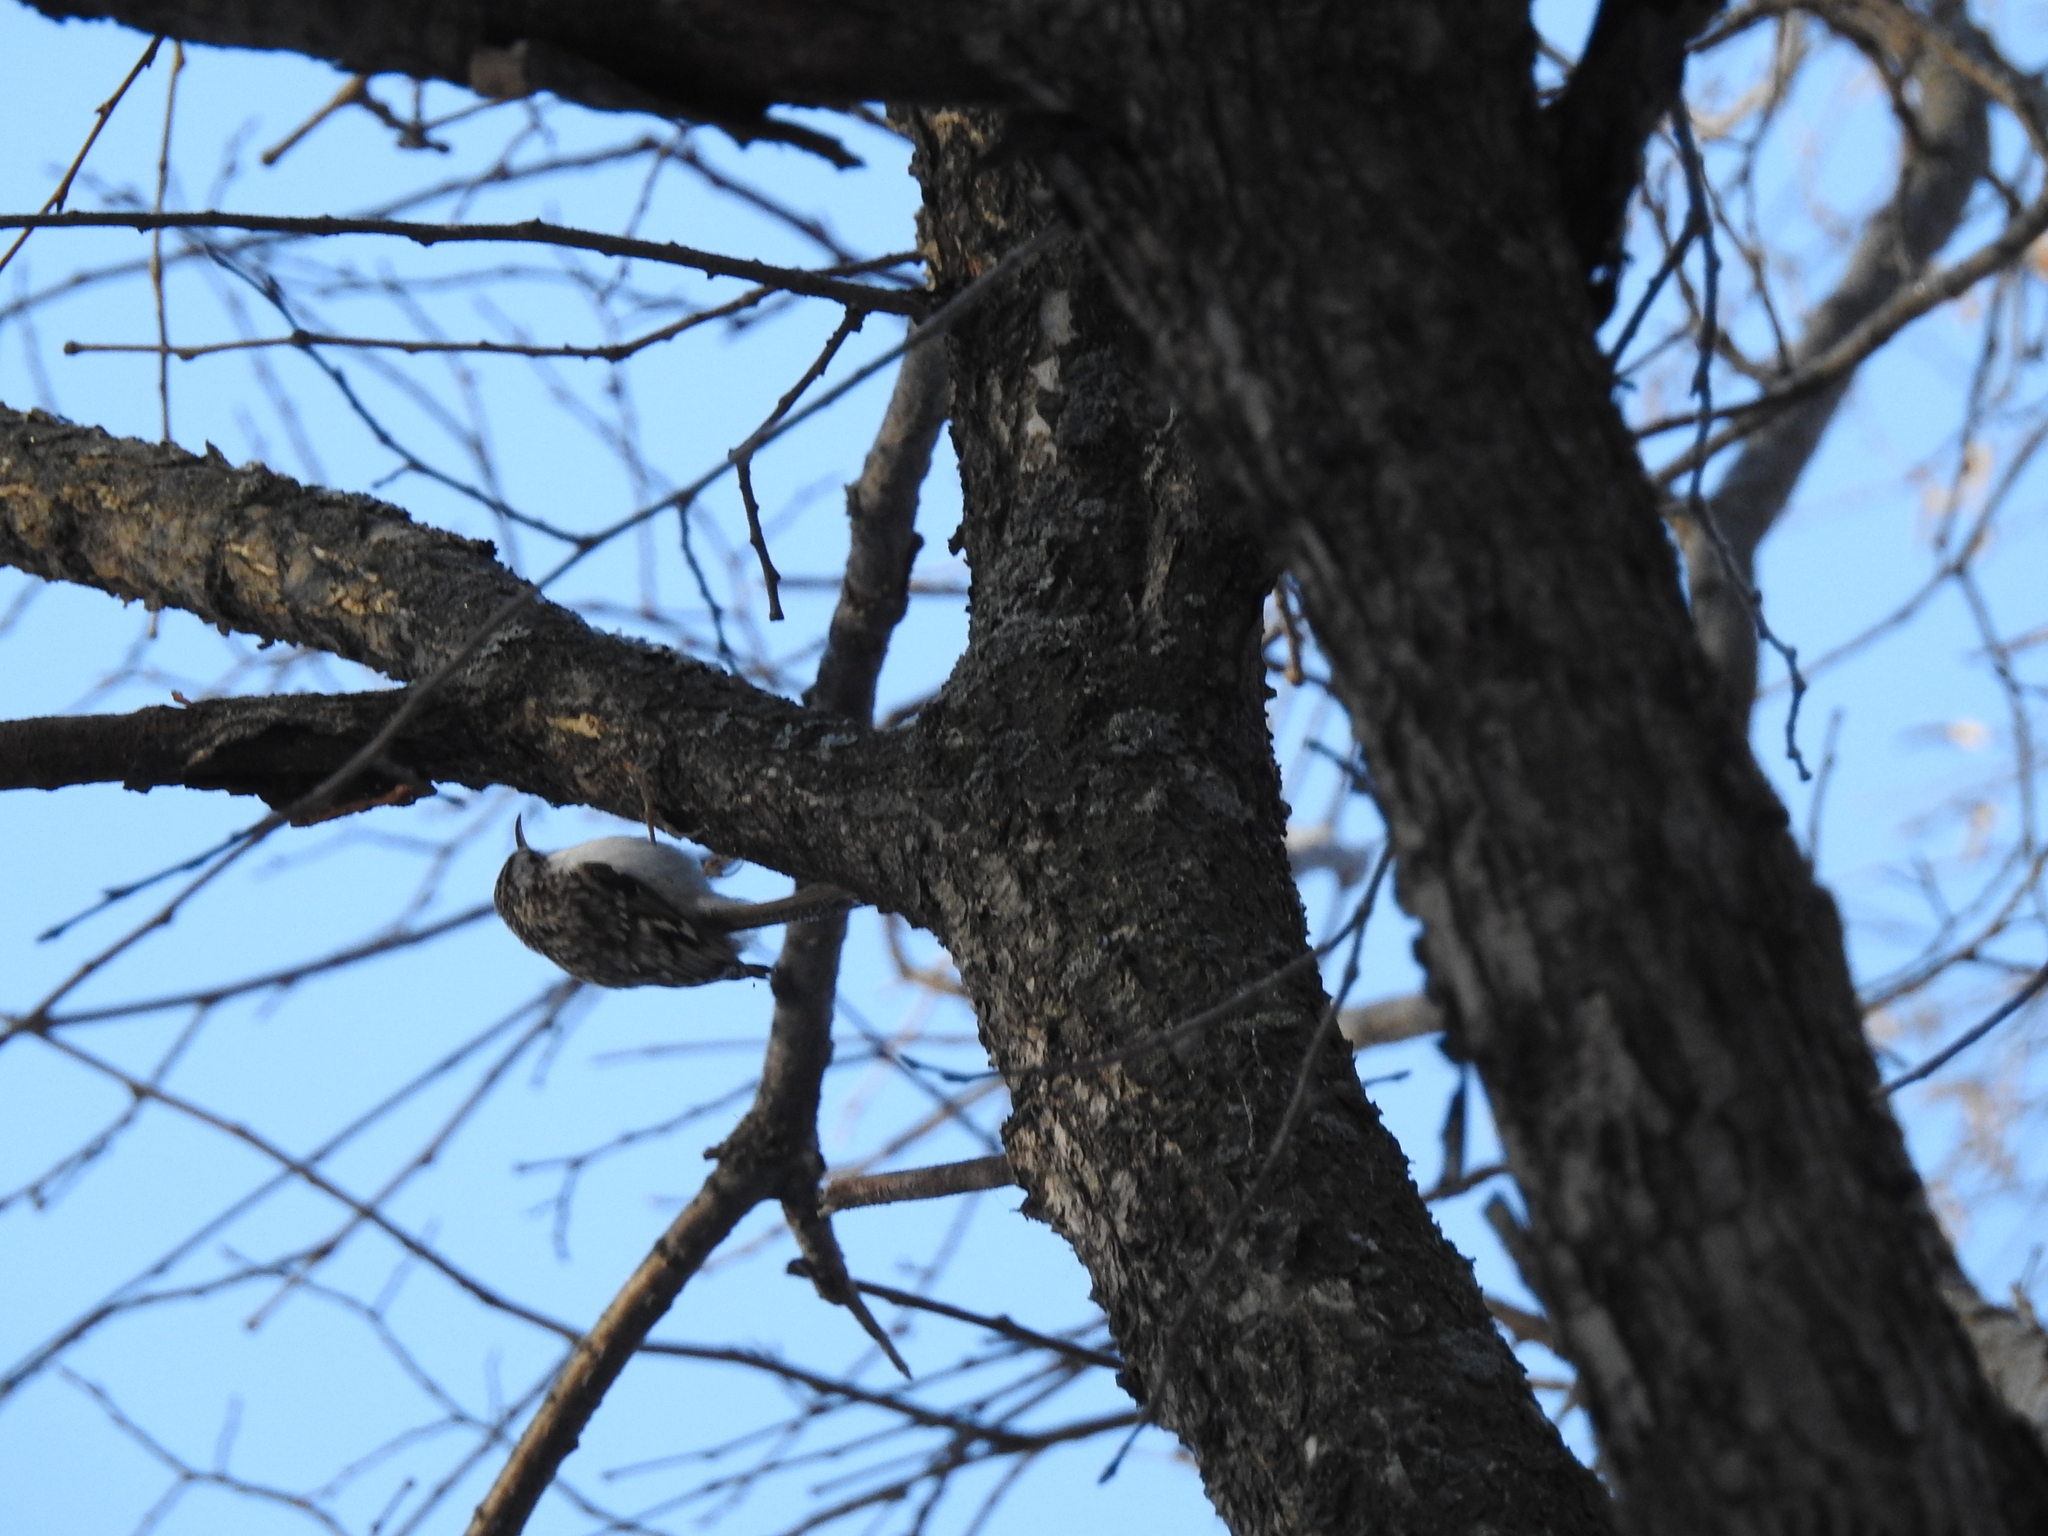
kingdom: Animalia
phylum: Chordata
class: Aves
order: Passeriformes
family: Certhiidae
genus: Certhia
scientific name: Certhia familiaris
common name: Eurasian treecreeper
